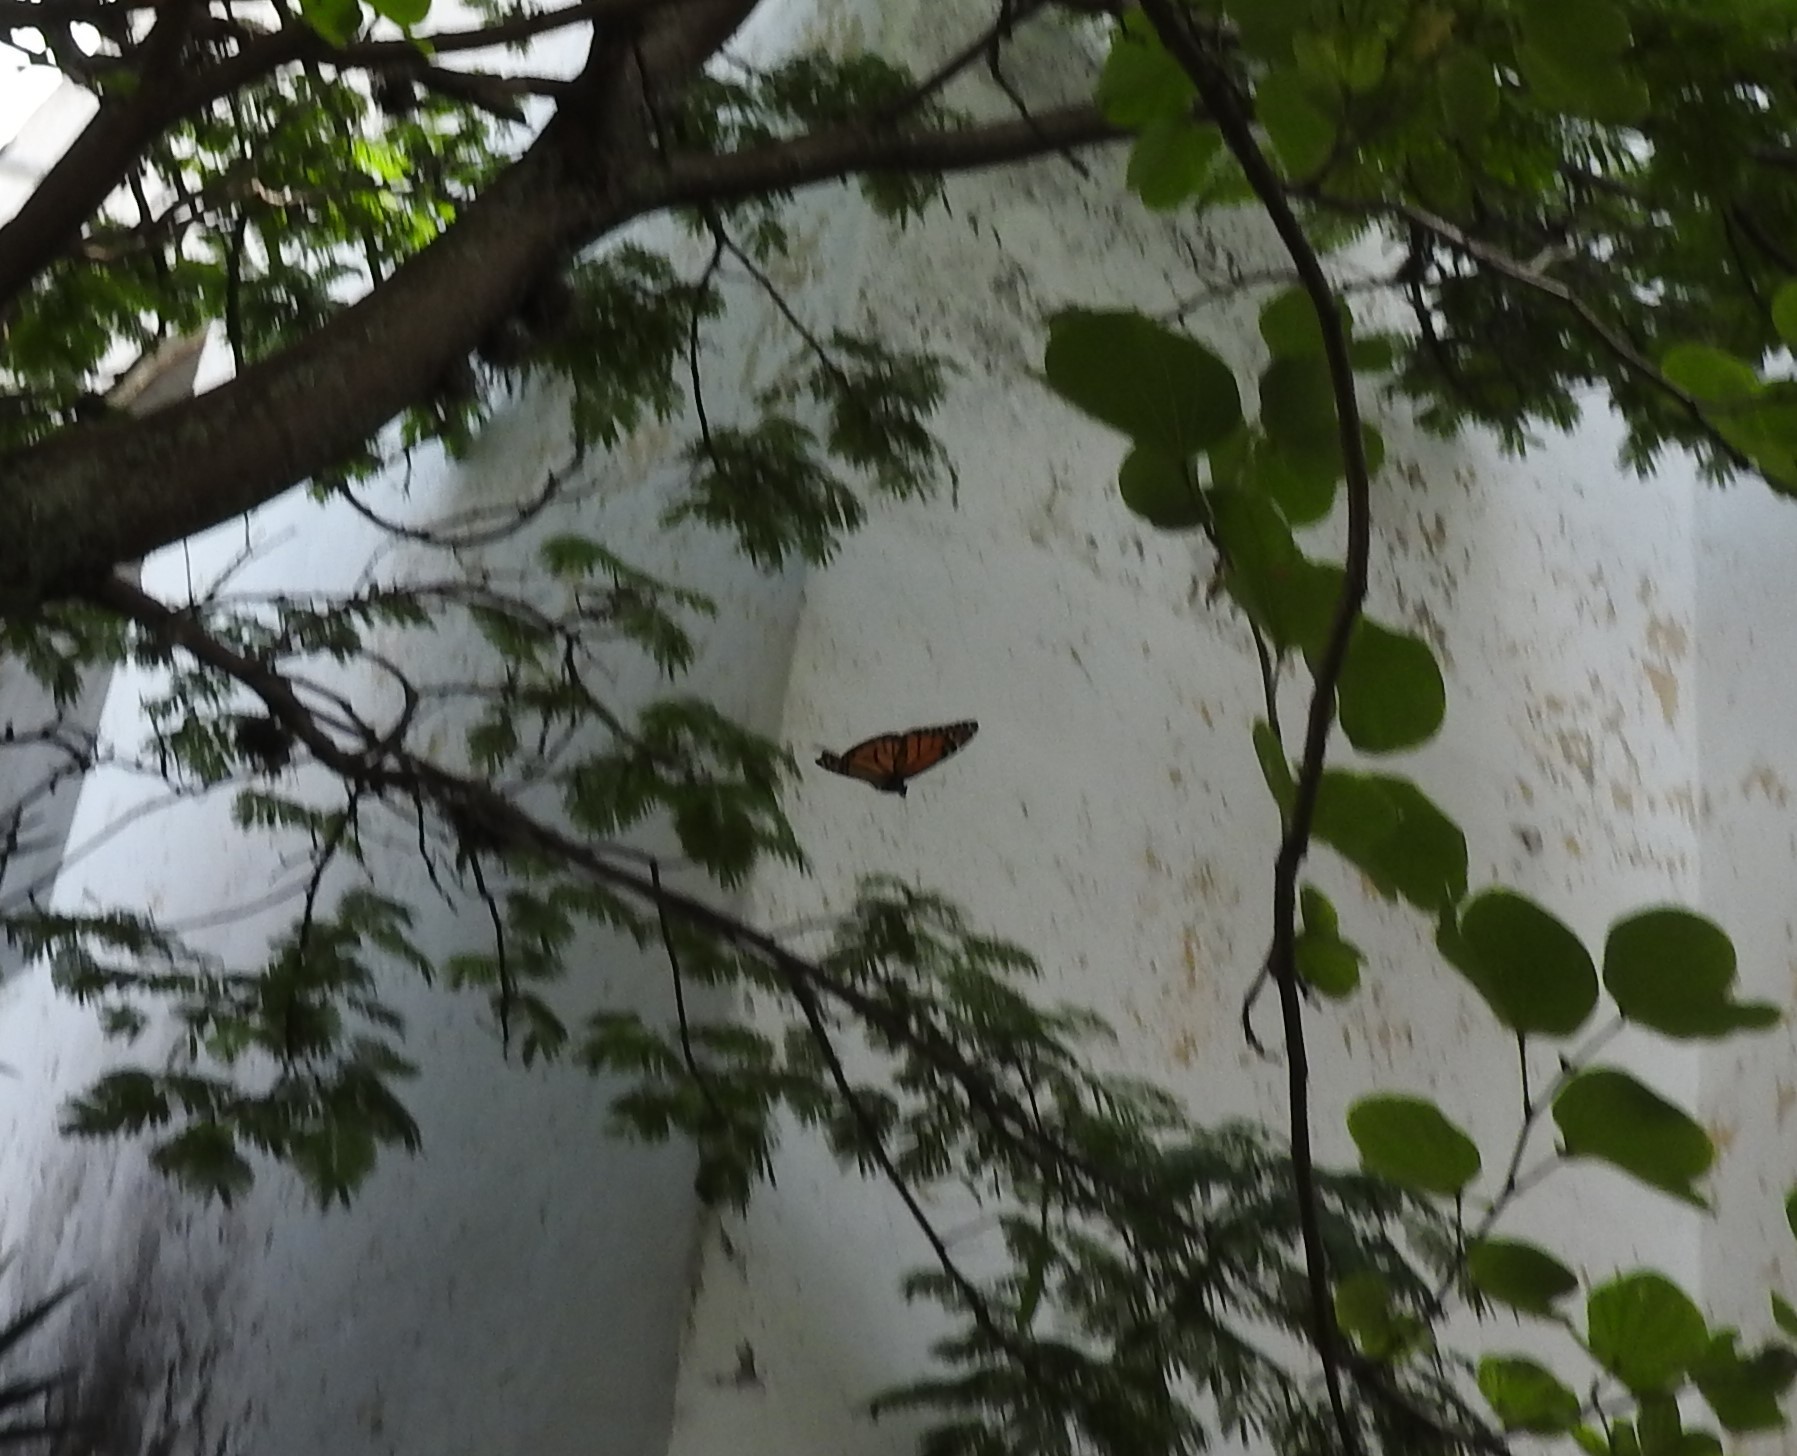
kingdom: Animalia
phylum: Arthropoda
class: Insecta
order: Lepidoptera
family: Nymphalidae
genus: Danaus
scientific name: Danaus plexippus
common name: Monarch
